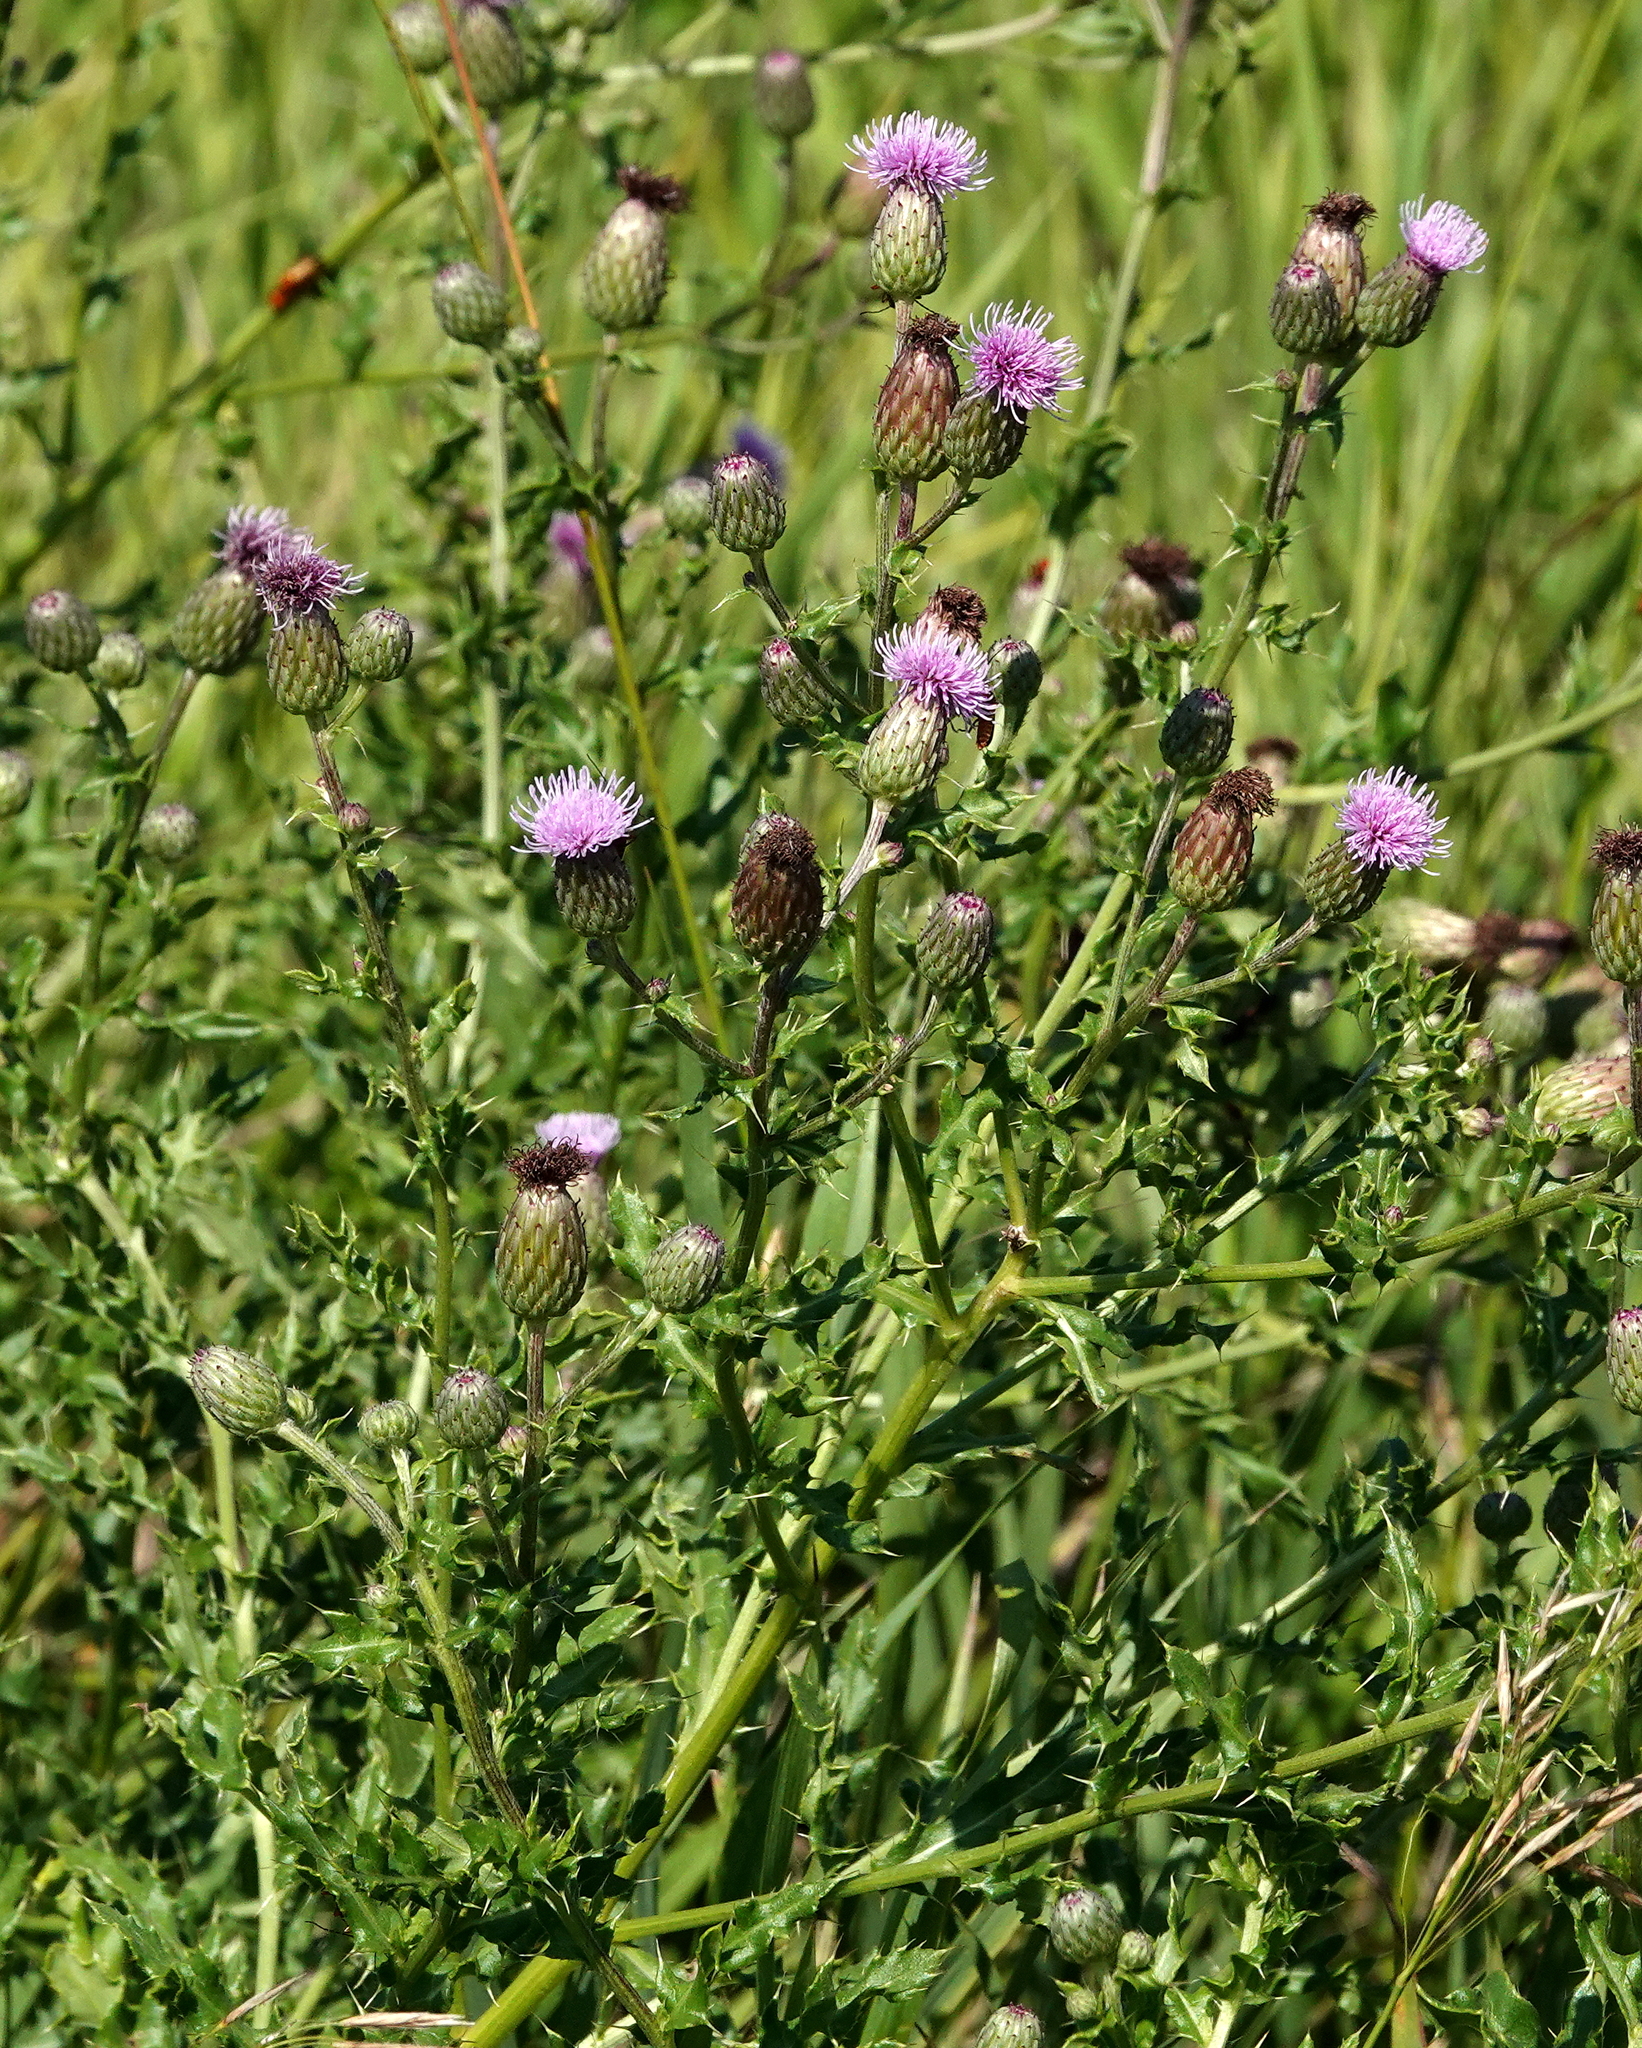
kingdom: Plantae
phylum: Tracheophyta
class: Magnoliopsida
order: Asterales
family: Asteraceae
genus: Cirsium
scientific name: Cirsium arvense
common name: Creeping thistle
